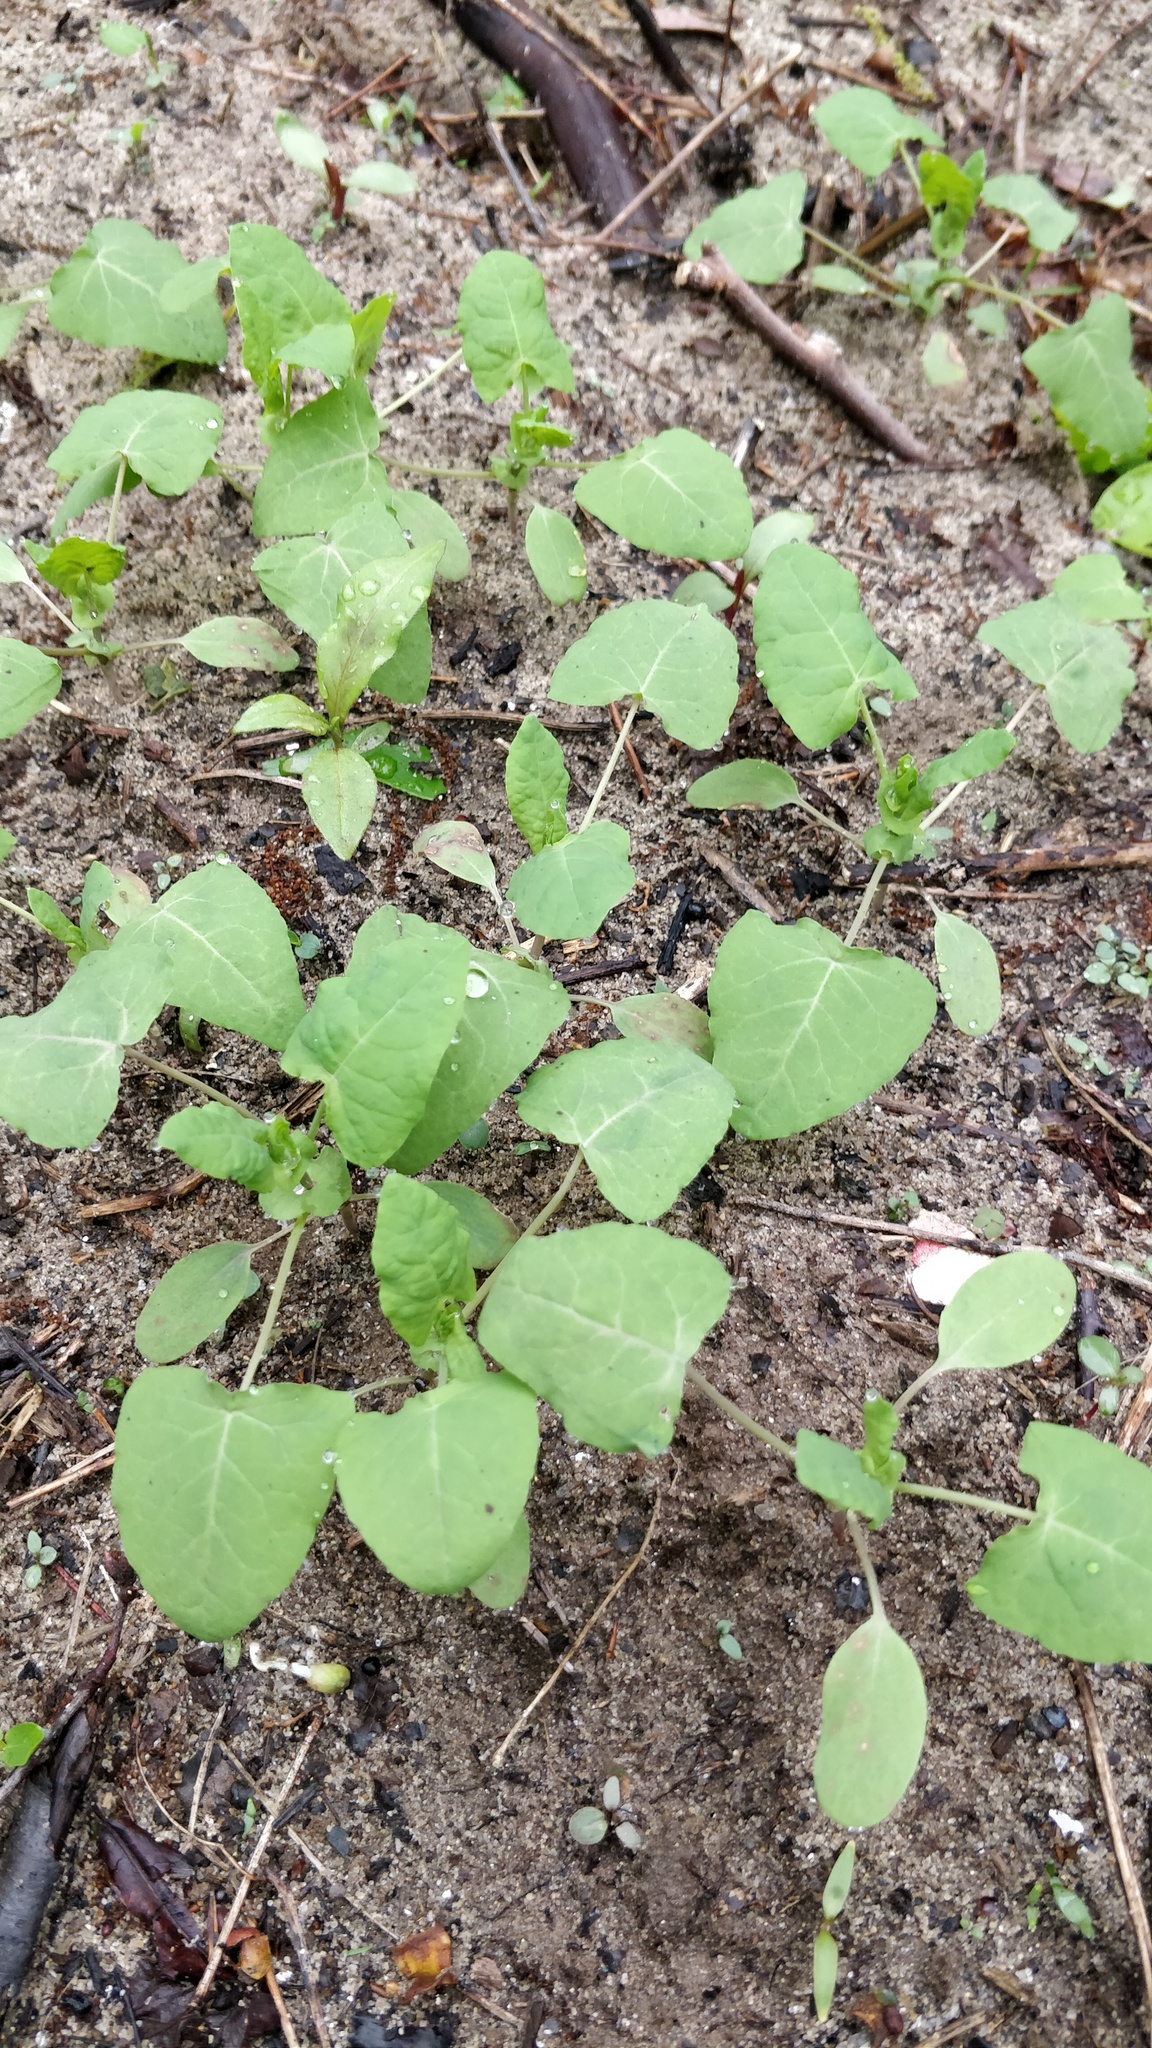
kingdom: Plantae
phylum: Tracheophyta
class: Magnoliopsida
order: Caryophyllales
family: Polygonaceae
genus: Persicaria
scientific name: Persicaria perfoliata
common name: Asiatic tearthumb
